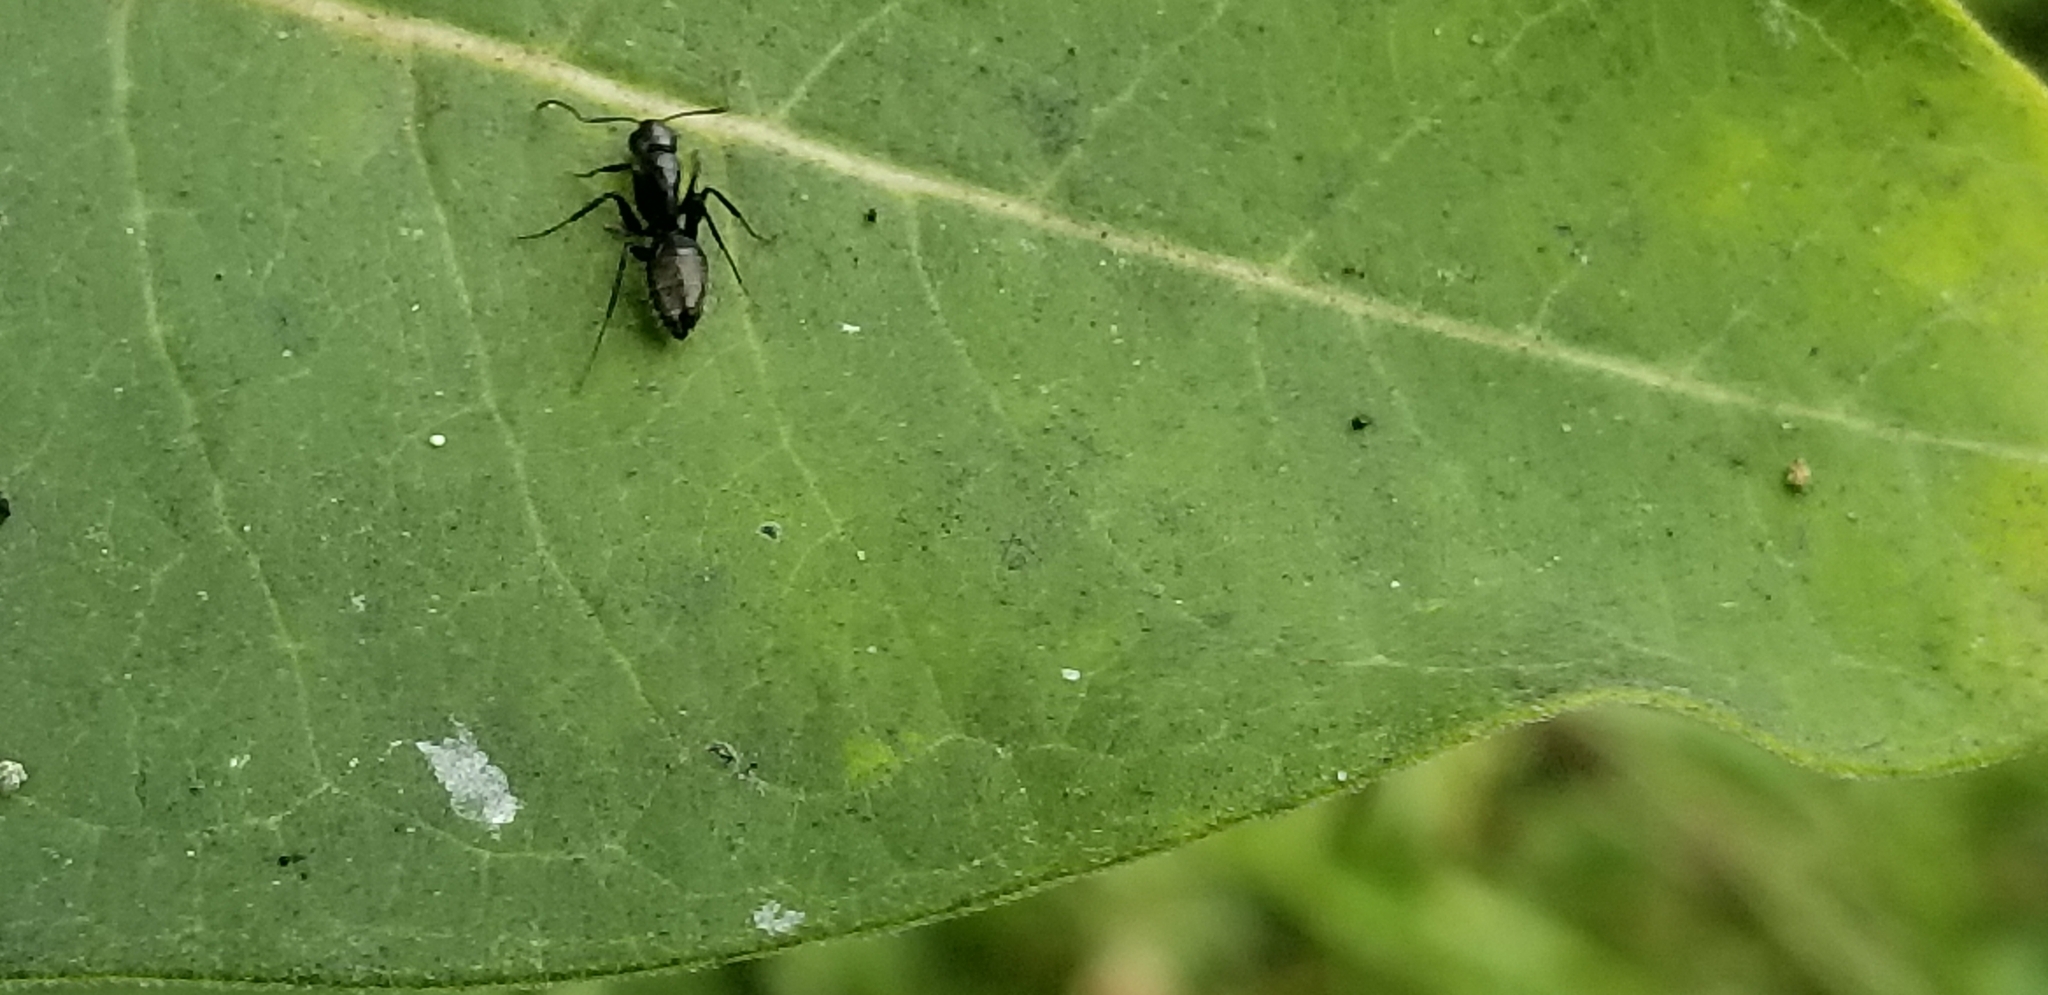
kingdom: Animalia
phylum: Arthropoda
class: Insecta
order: Hymenoptera
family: Formicidae
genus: Camponotus
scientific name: Camponotus pennsylvanicus
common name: Black carpenter ant
